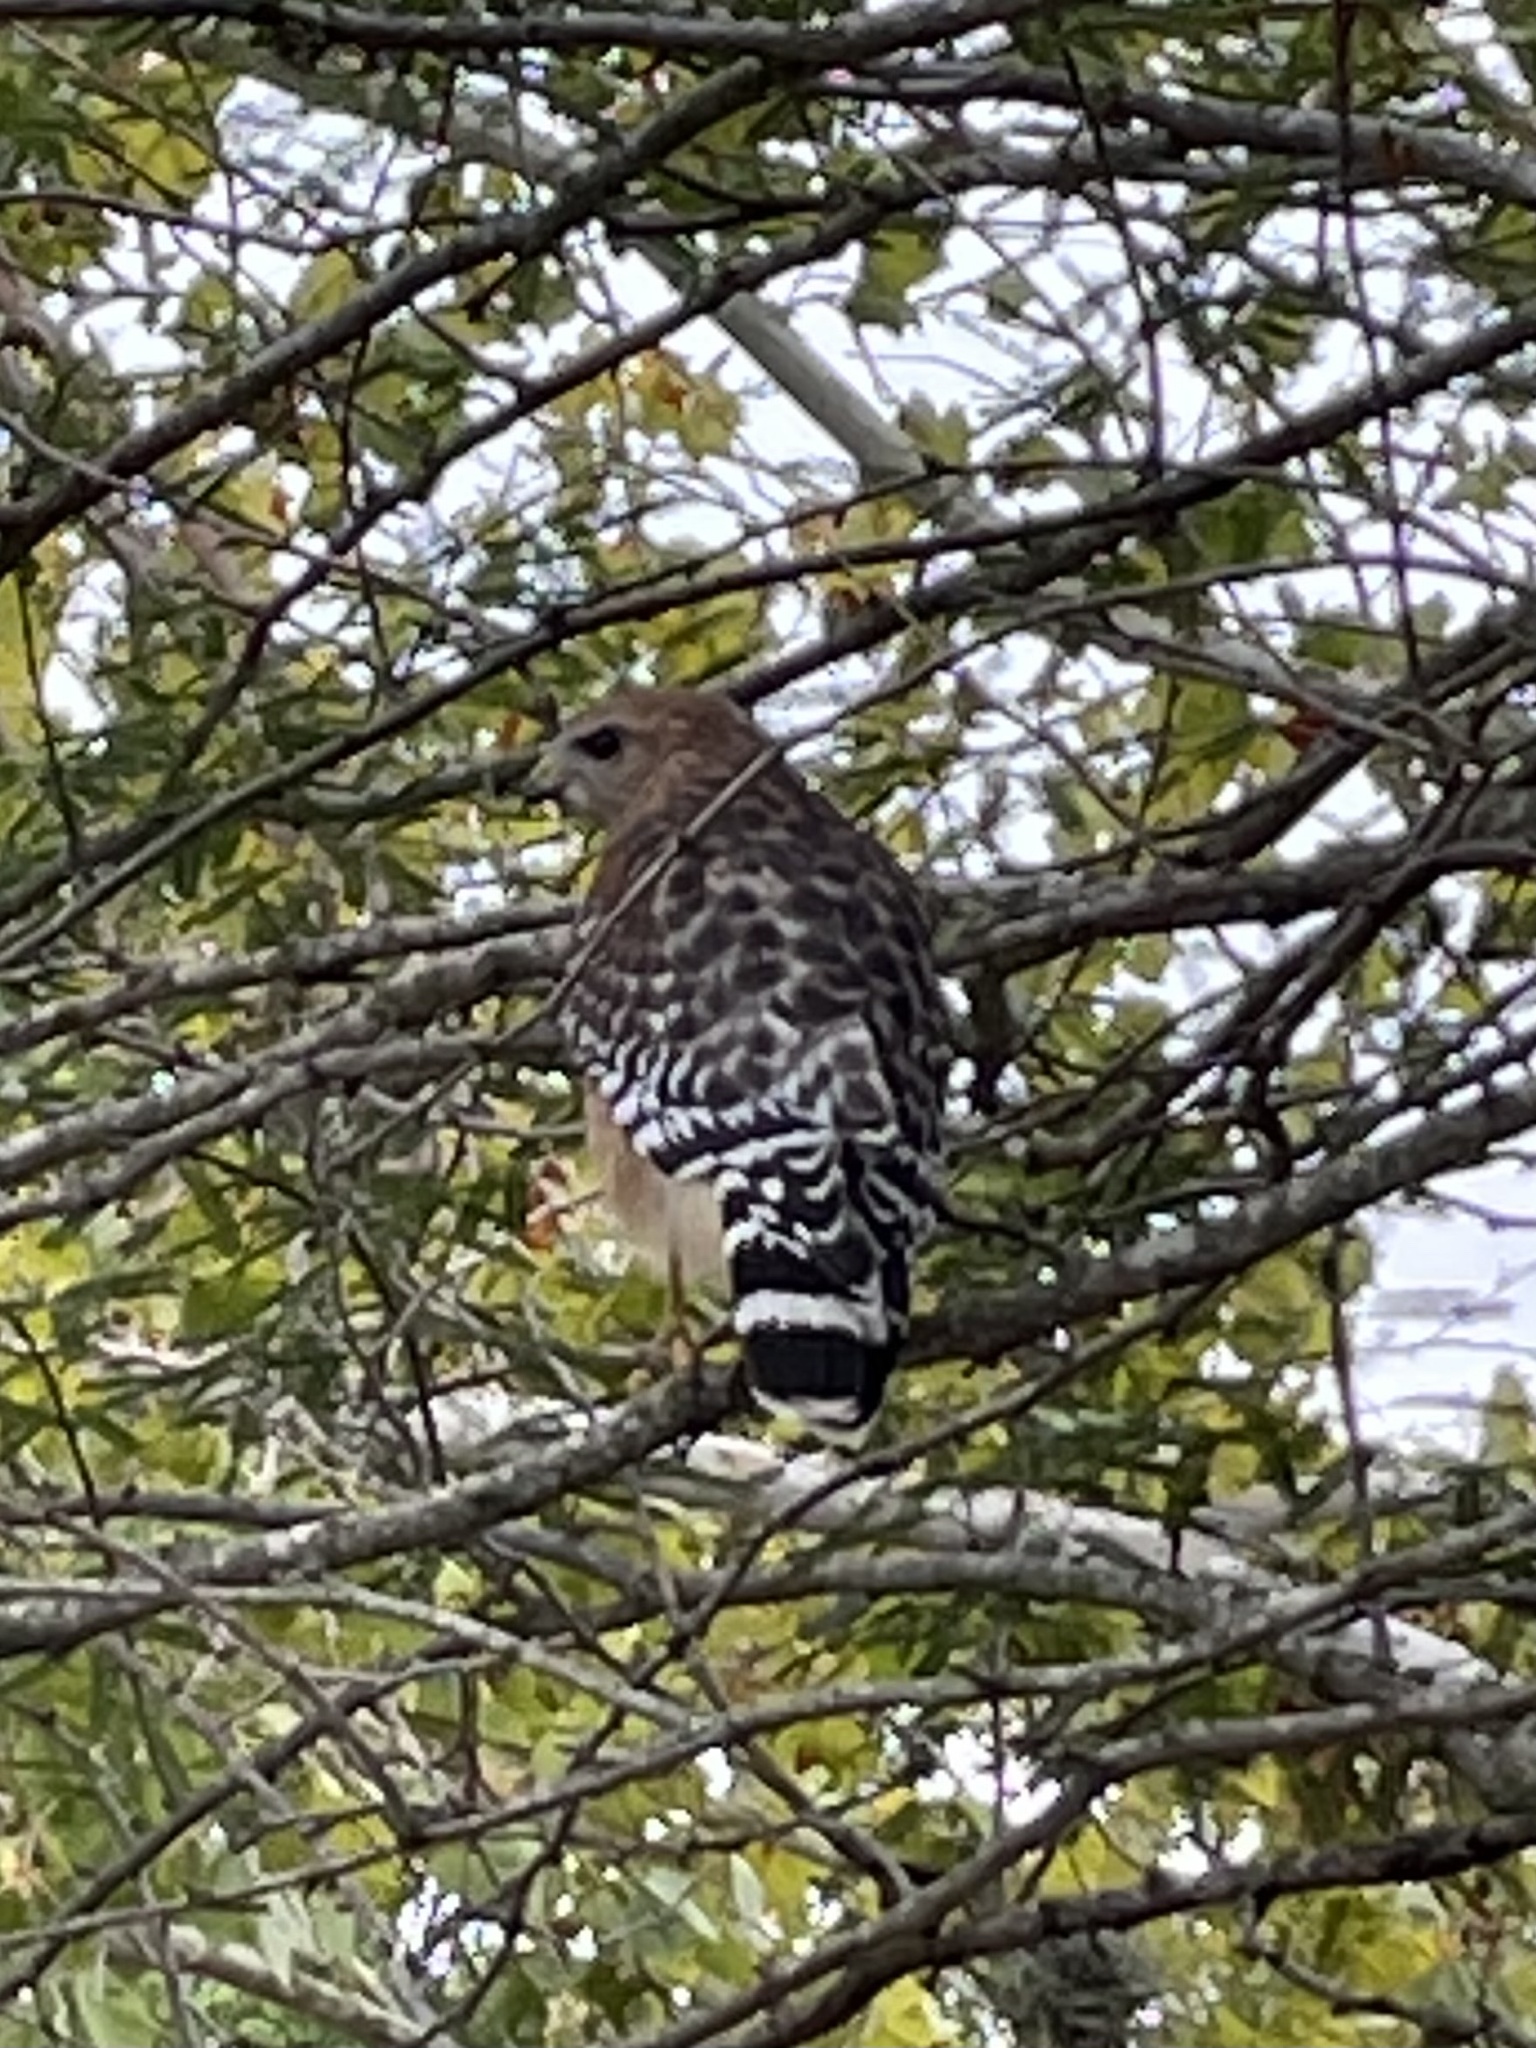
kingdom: Animalia
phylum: Chordata
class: Aves
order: Accipitriformes
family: Accipitridae
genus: Buteo
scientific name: Buteo lineatus
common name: Red-shouldered hawk
